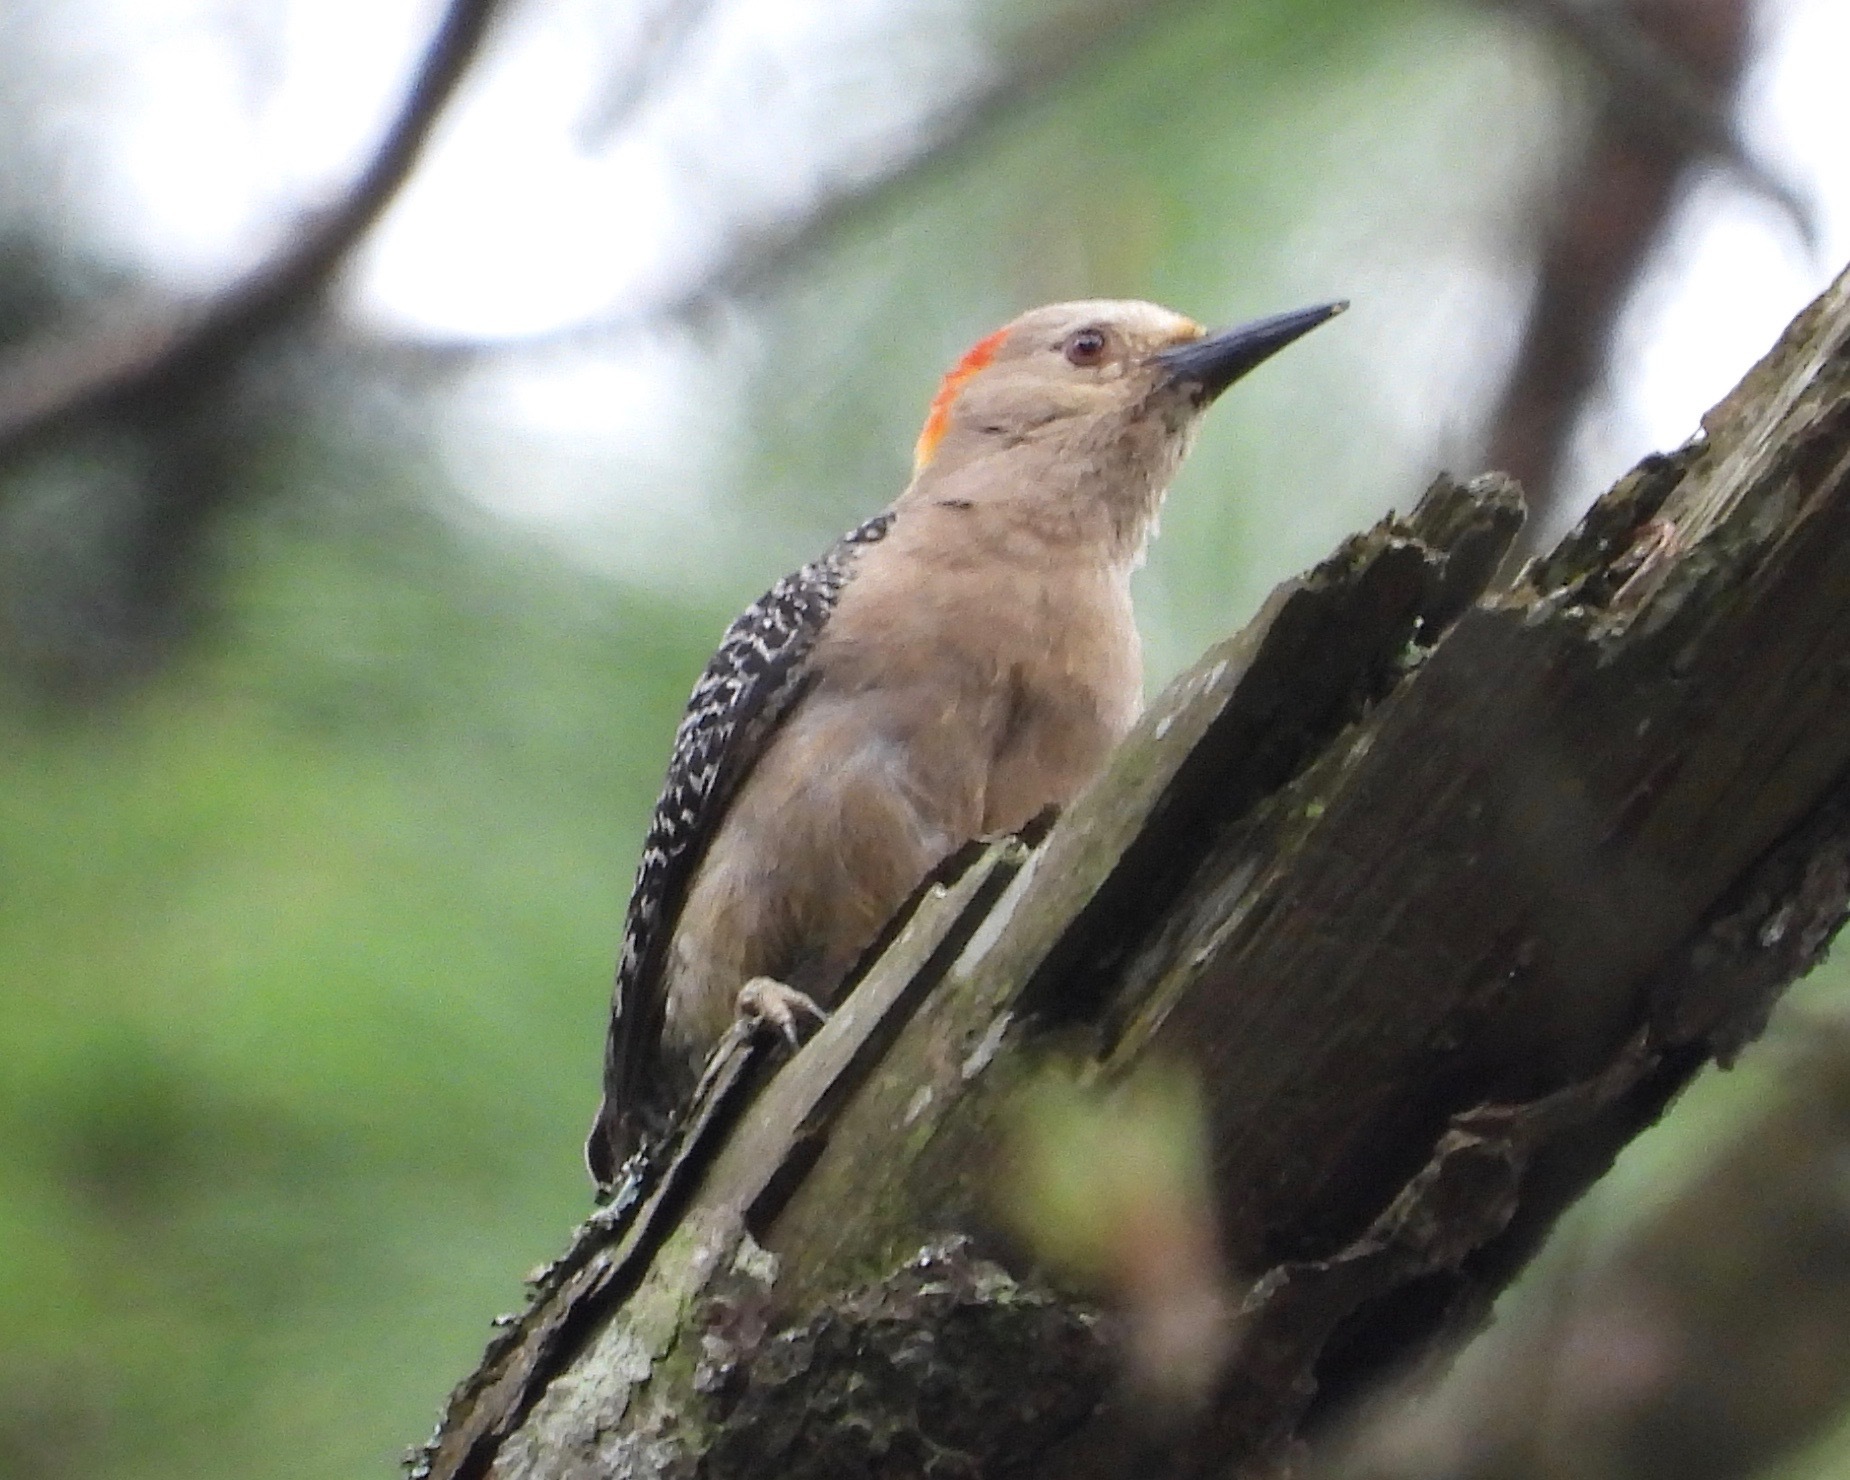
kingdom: Animalia
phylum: Chordata
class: Aves
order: Piciformes
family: Picidae
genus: Melanerpes
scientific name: Melanerpes santacruzi
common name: Velasquez's woodpecker
